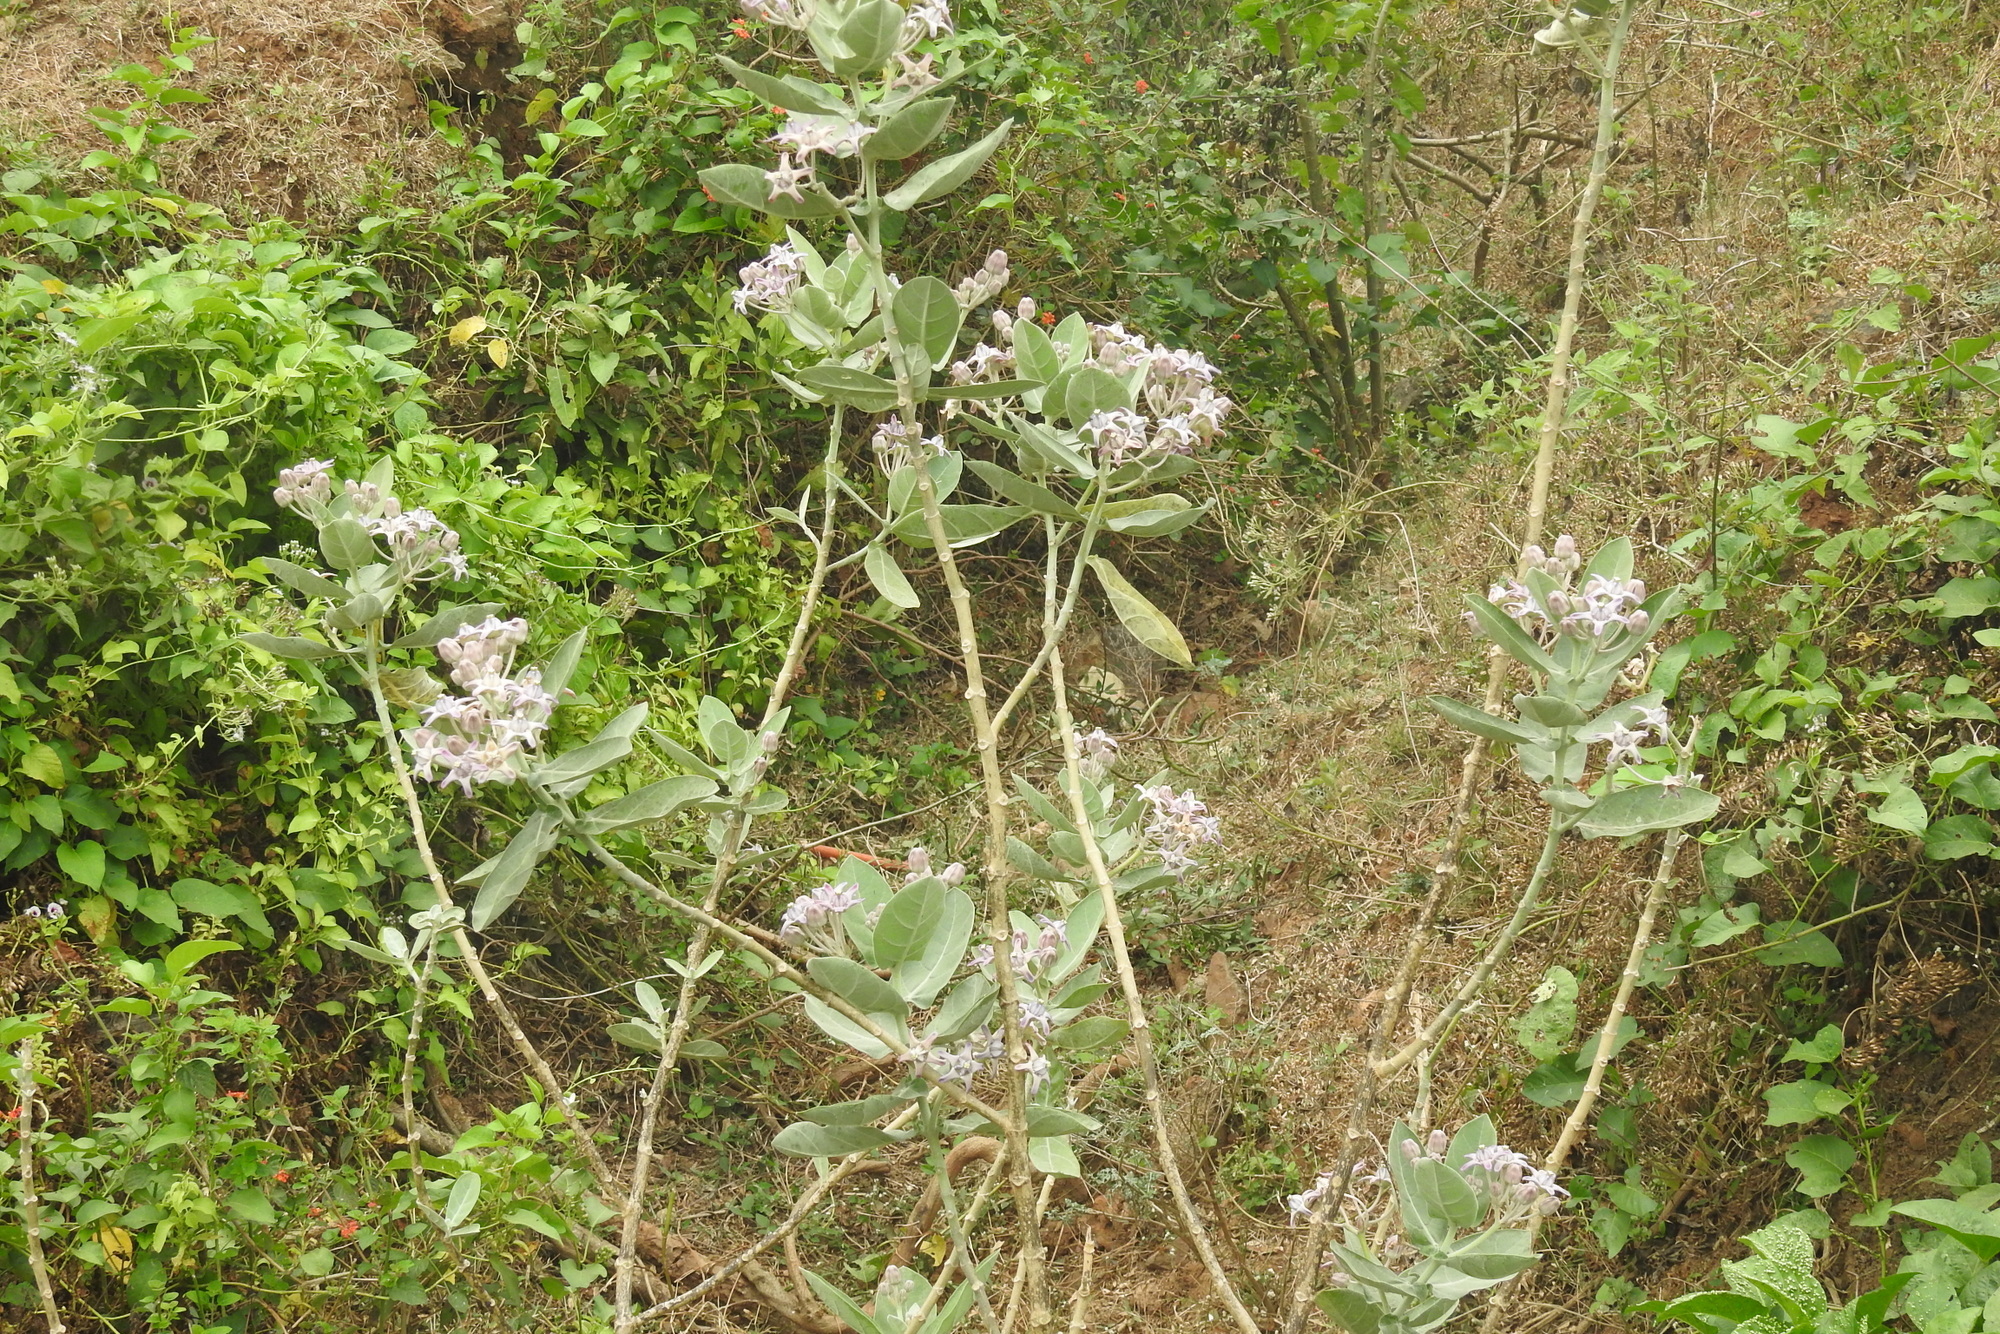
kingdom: Plantae
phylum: Tracheophyta
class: Magnoliopsida
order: Gentianales
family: Apocynaceae
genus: Calotropis
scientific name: Calotropis gigantea
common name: Crown flower
